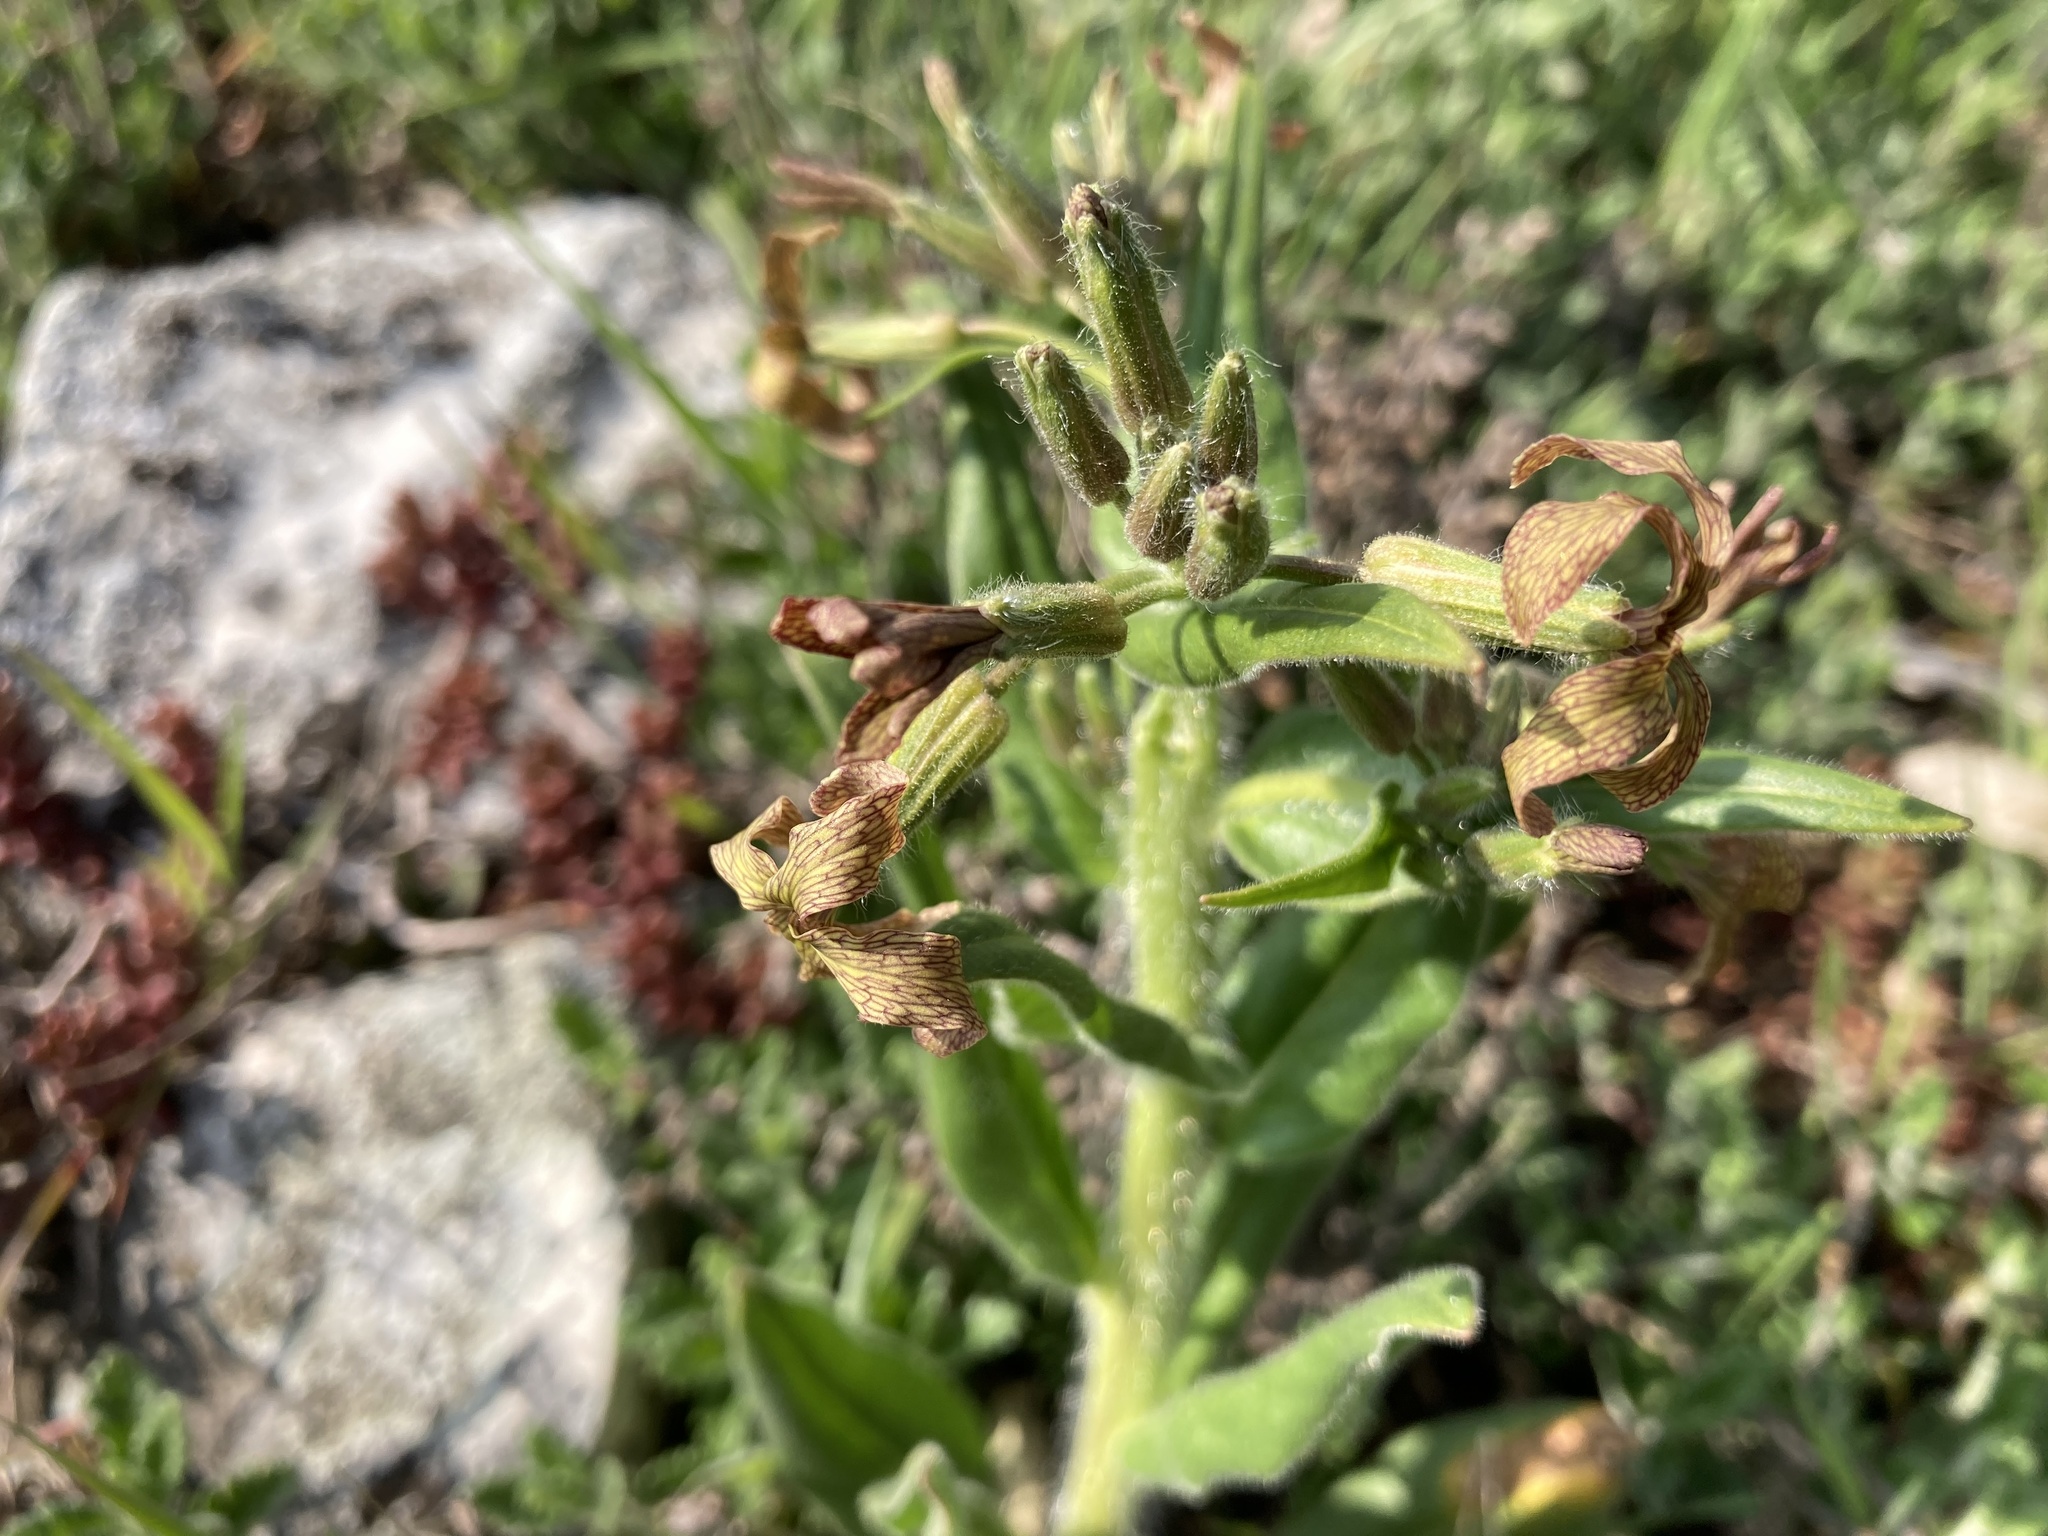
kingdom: Plantae
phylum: Tracheophyta
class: Magnoliopsida
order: Brassicales
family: Brassicaceae
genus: Hesperis
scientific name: Hesperis tristis
